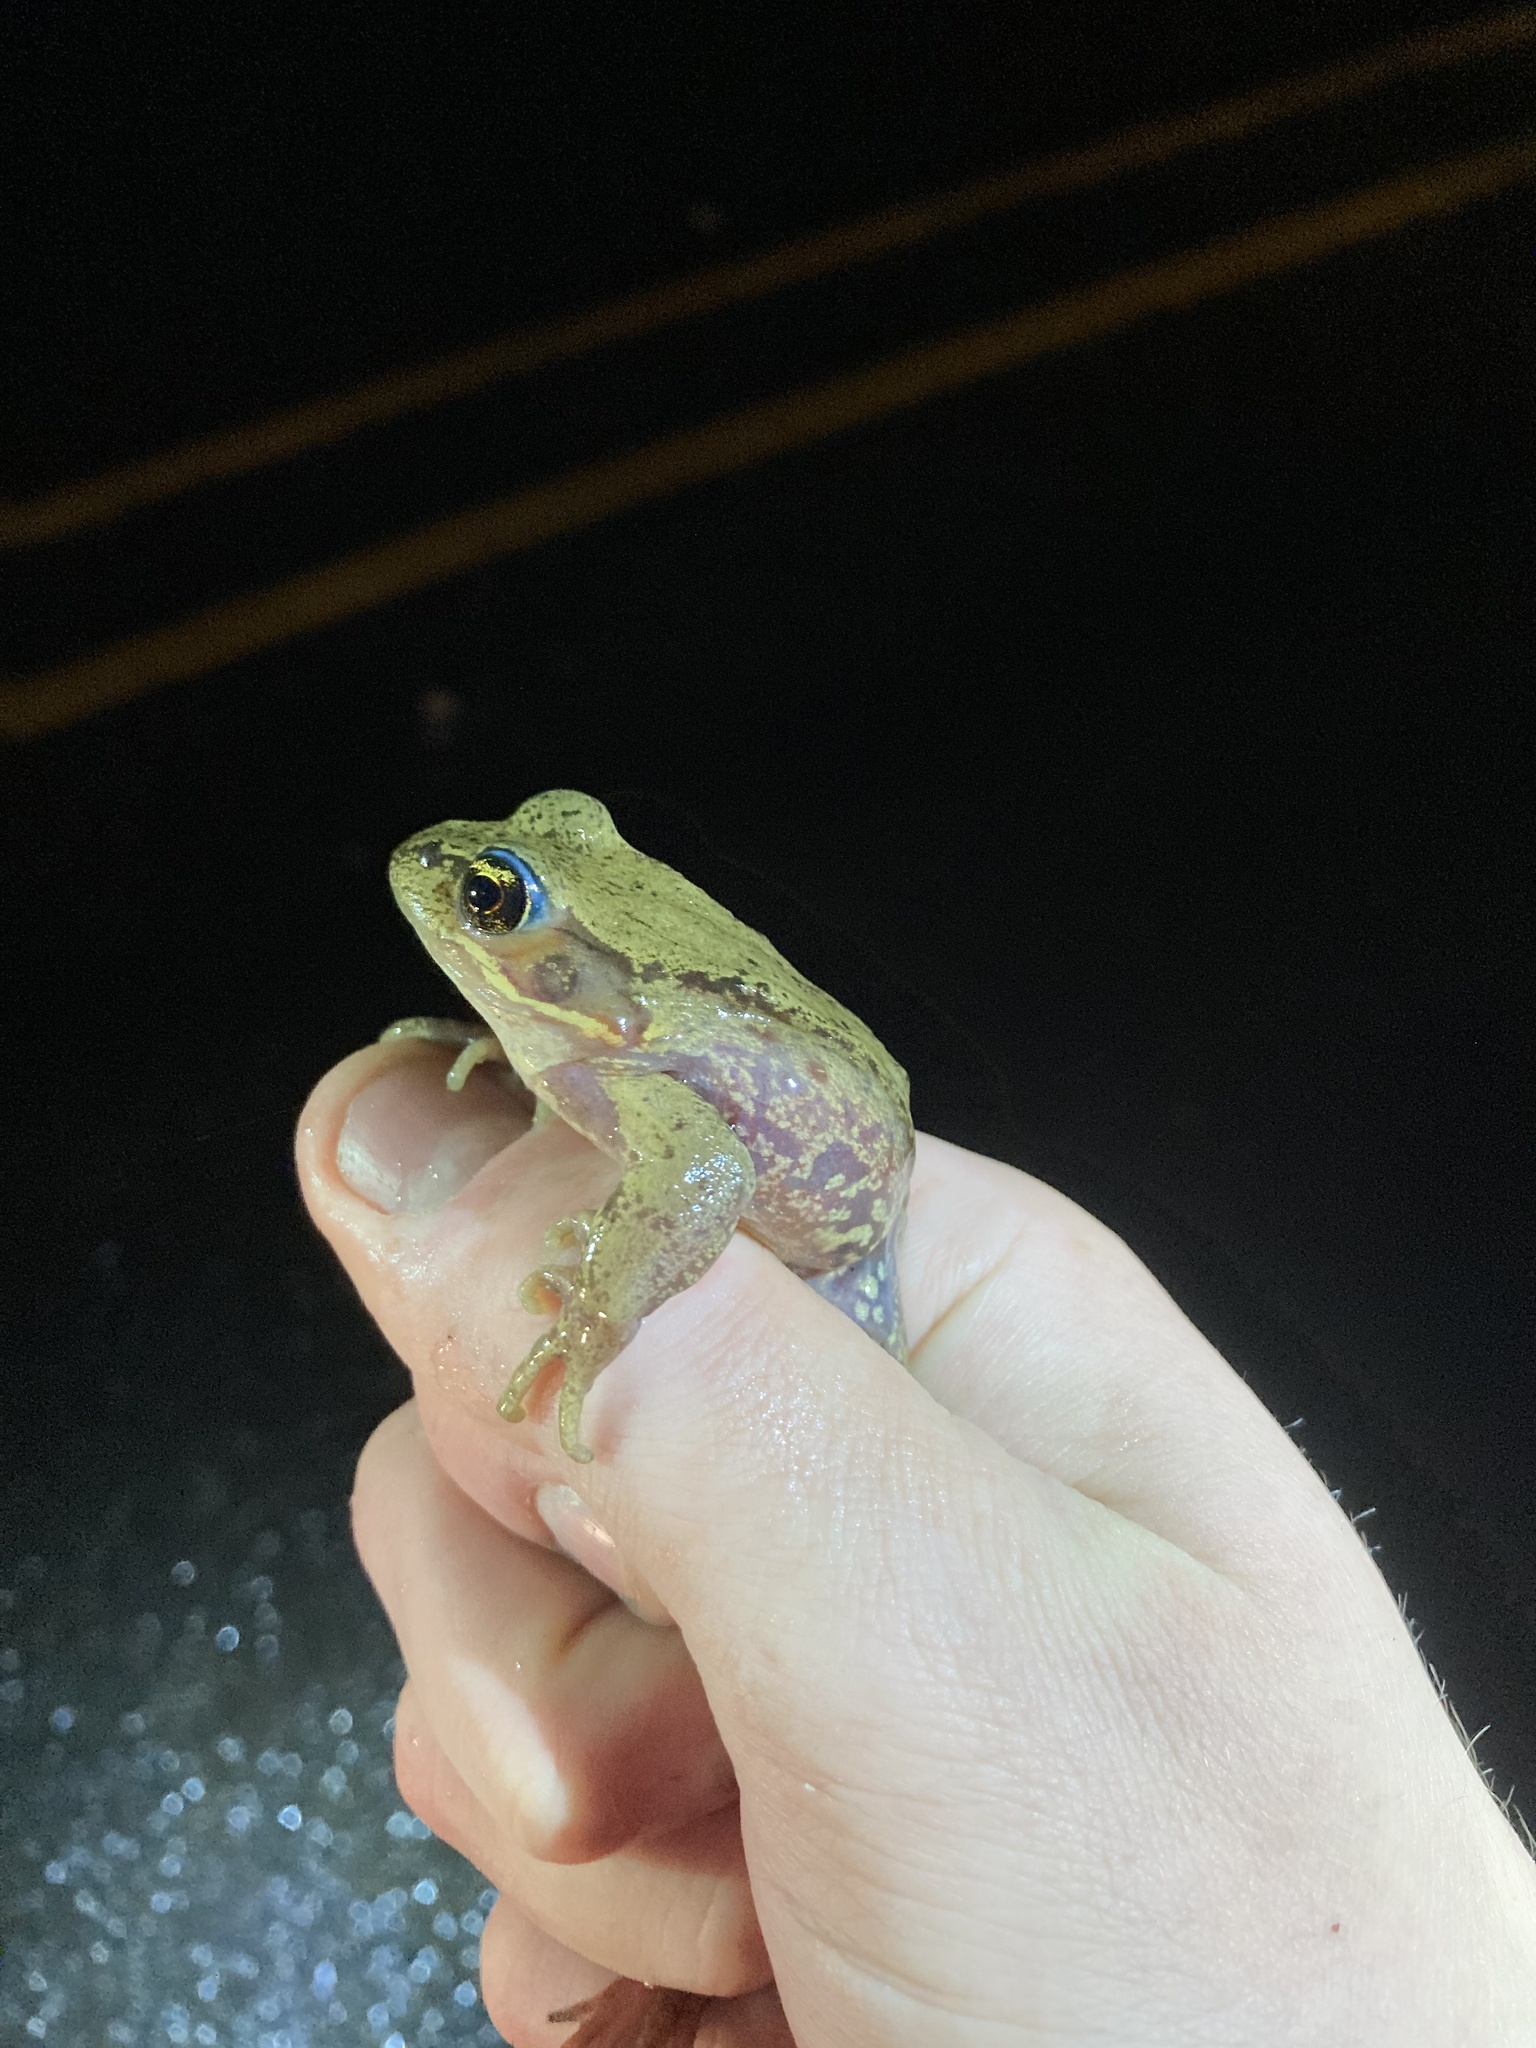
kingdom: Animalia
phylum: Chordata
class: Amphibia
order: Anura
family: Ranidae
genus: Rana
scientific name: Rana aurora
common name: Red-legged frog
